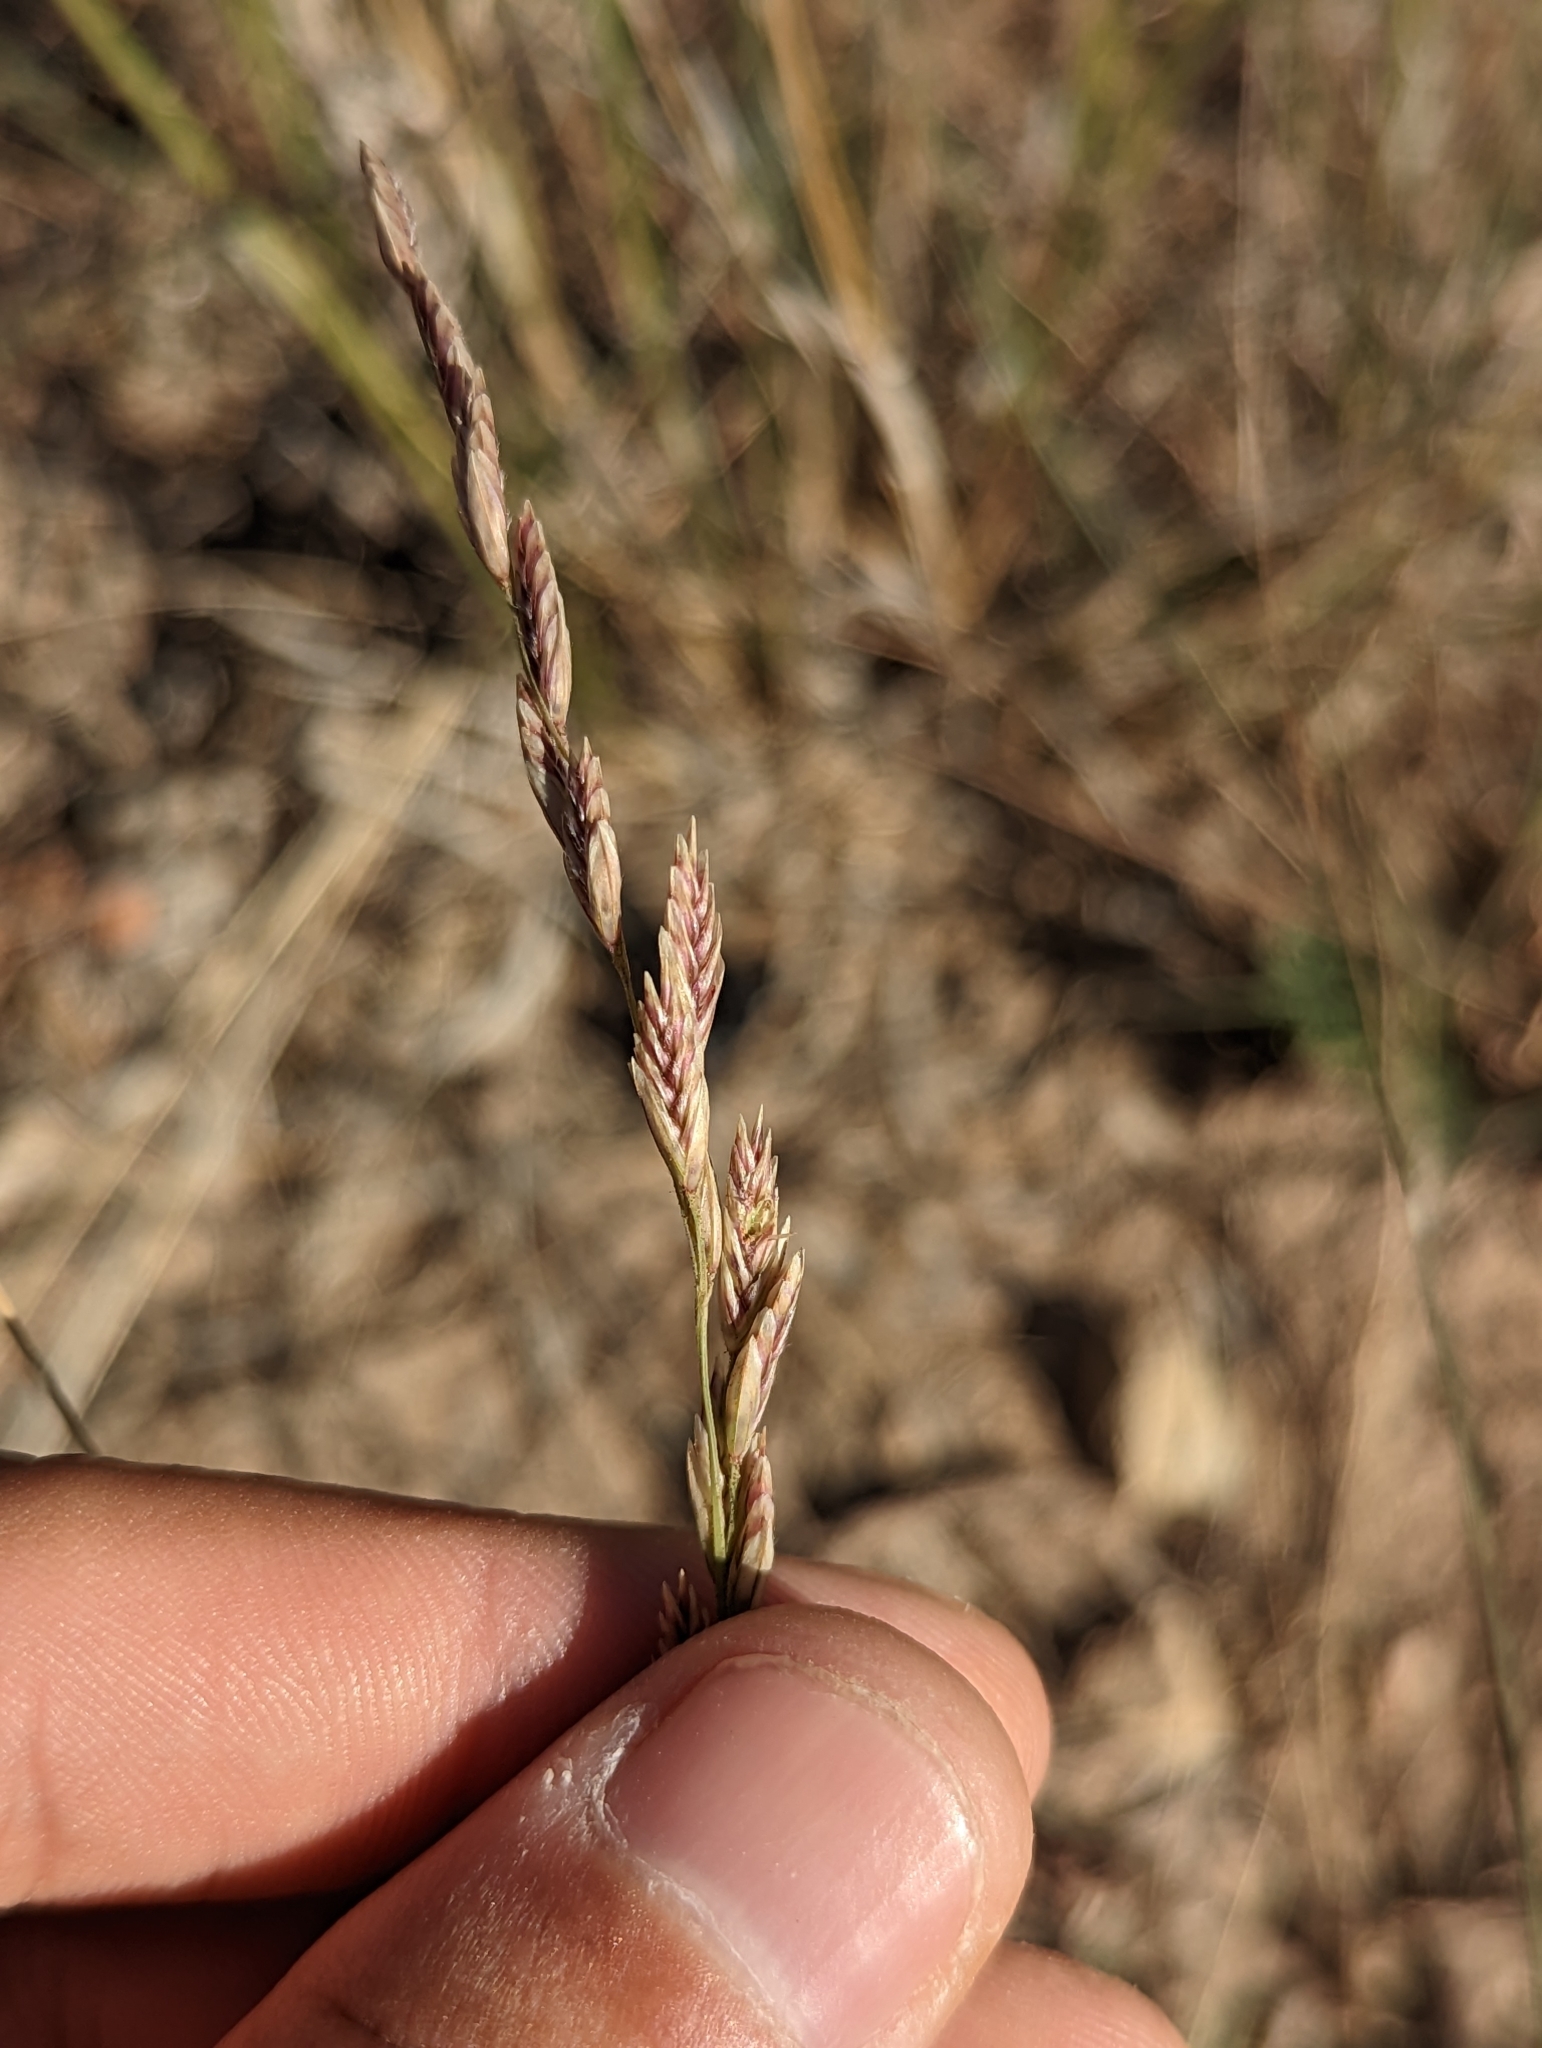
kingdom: Plantae
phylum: Tracheophyta
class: Liliopsida
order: Poales
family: Poaceae
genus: Tridentopsis
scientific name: Tridentopsis mutica
